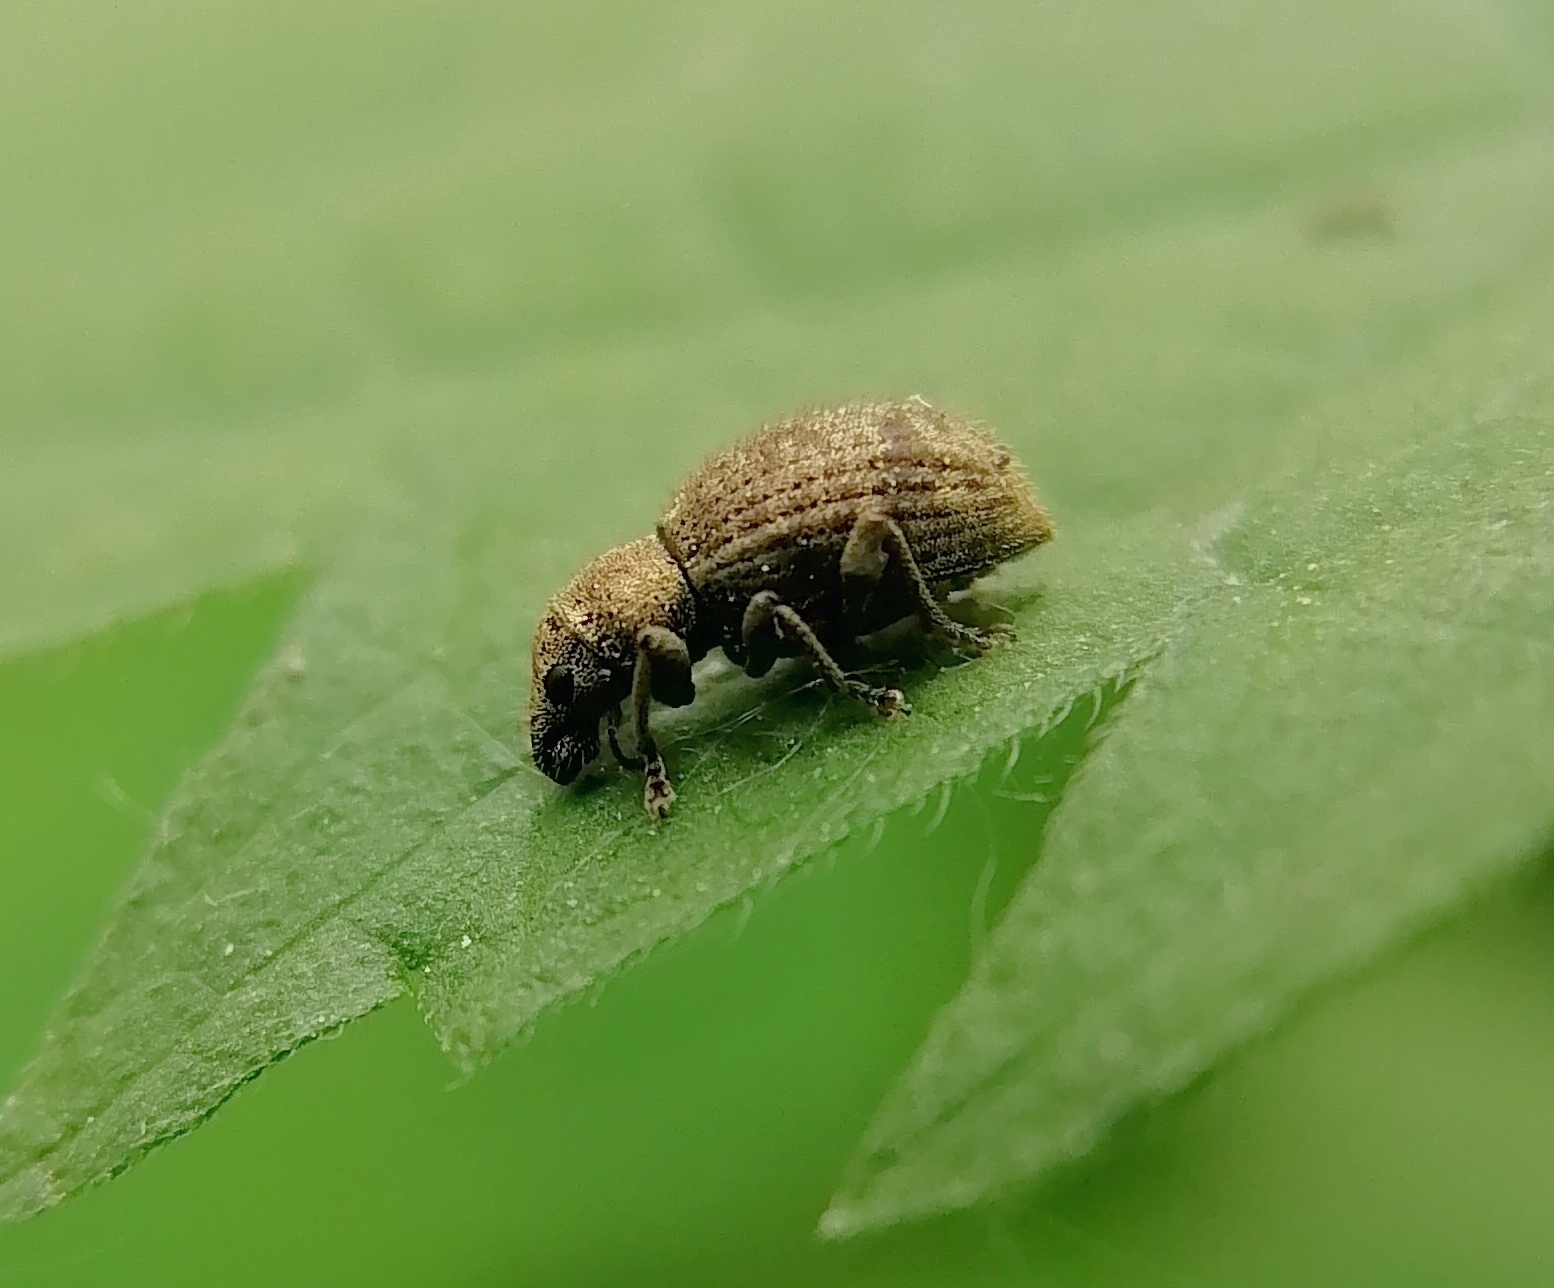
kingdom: Animalia
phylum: Arthropoda
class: Insecta
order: Coleoptera
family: Curculionidae
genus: Sciaphilus
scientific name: Sciaphilus asperatus
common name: Weevil
